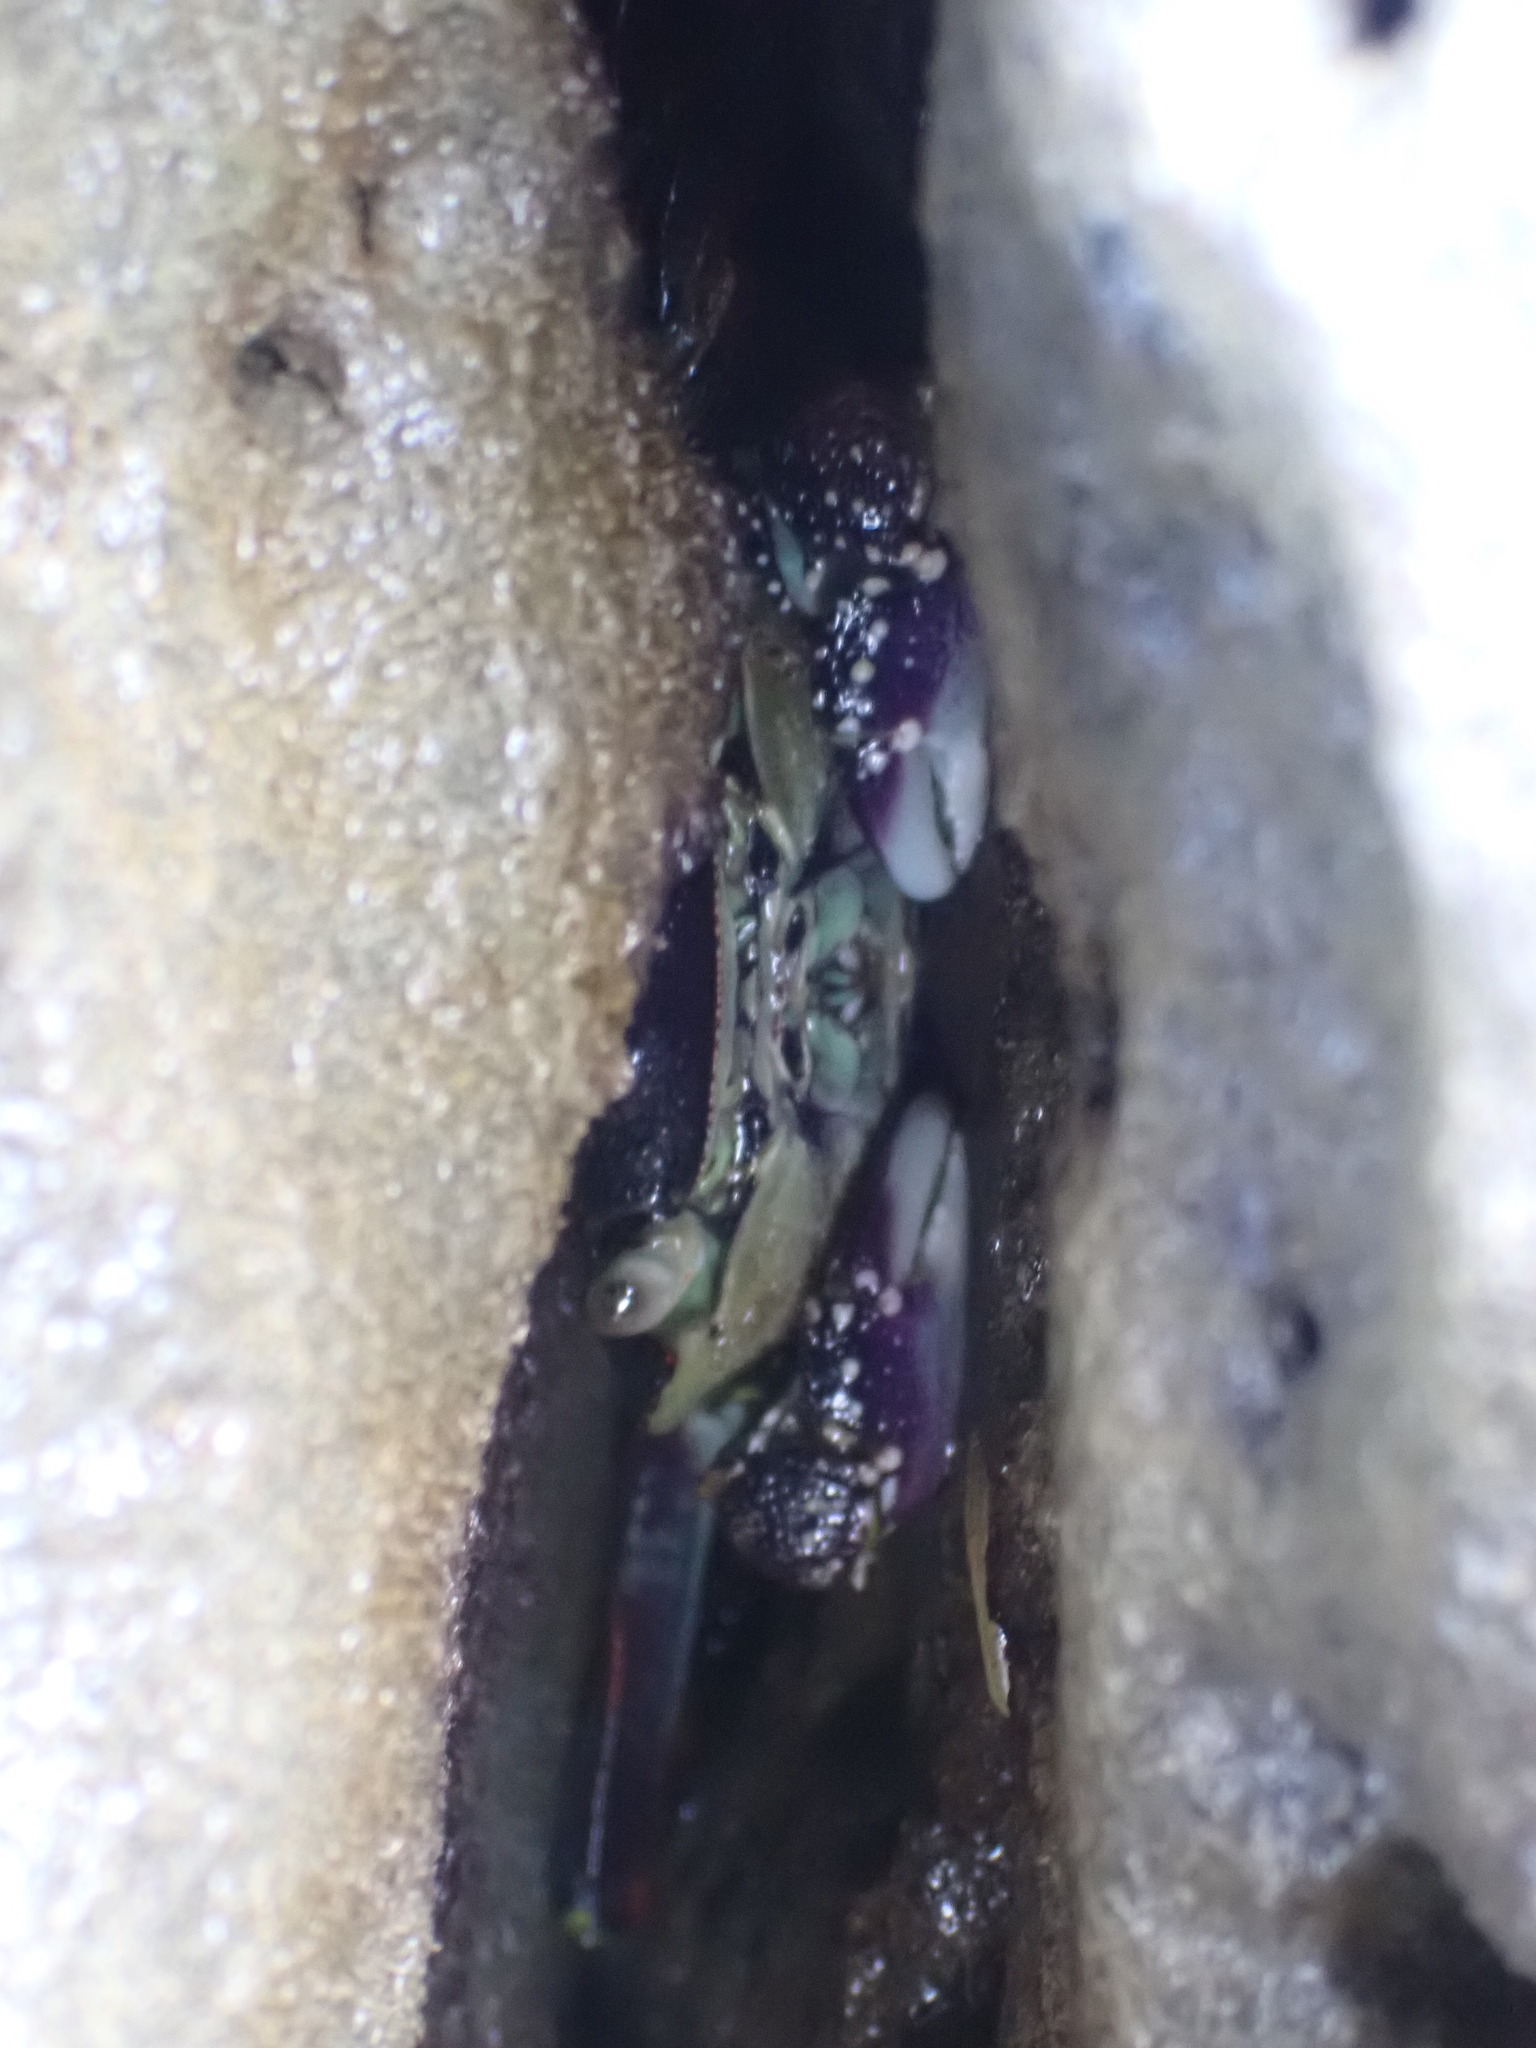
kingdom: Animalia
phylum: Arthropoda
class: Malacostraca
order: Decapoda
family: Grapsidae
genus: Leptograpsus
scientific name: Leptograpsus variegatus
